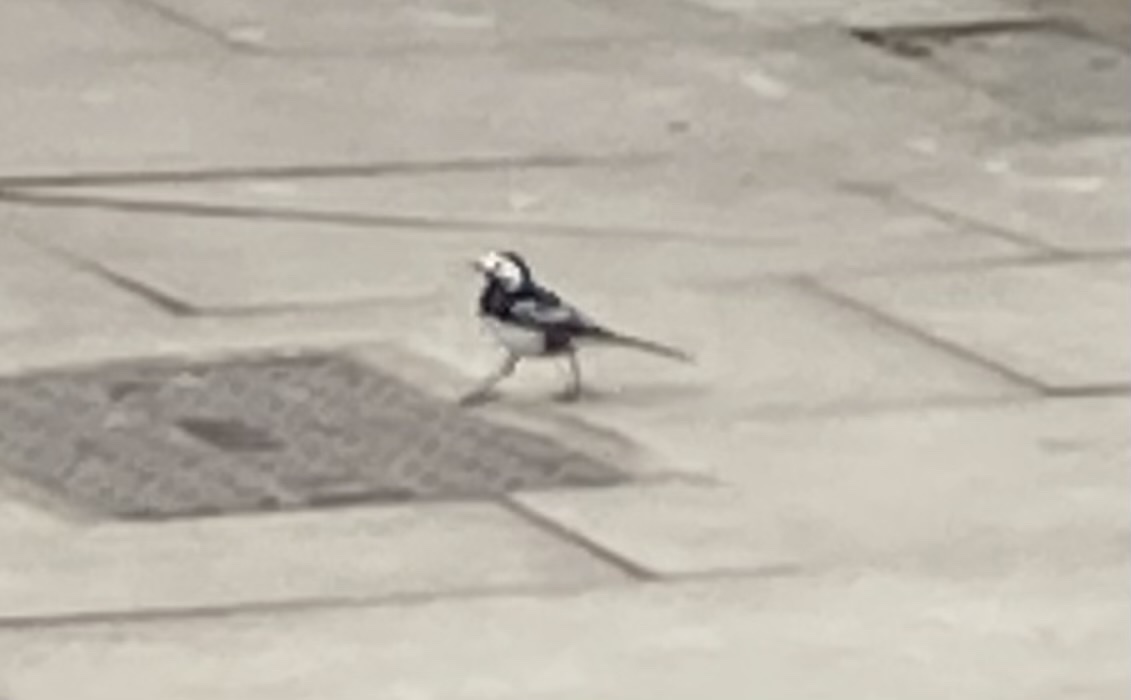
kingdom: Animalia
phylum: Chordata
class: Aves
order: Passeriformes
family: Motacillidae
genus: Motacilla
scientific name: Motacilla alba
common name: White wagtail
